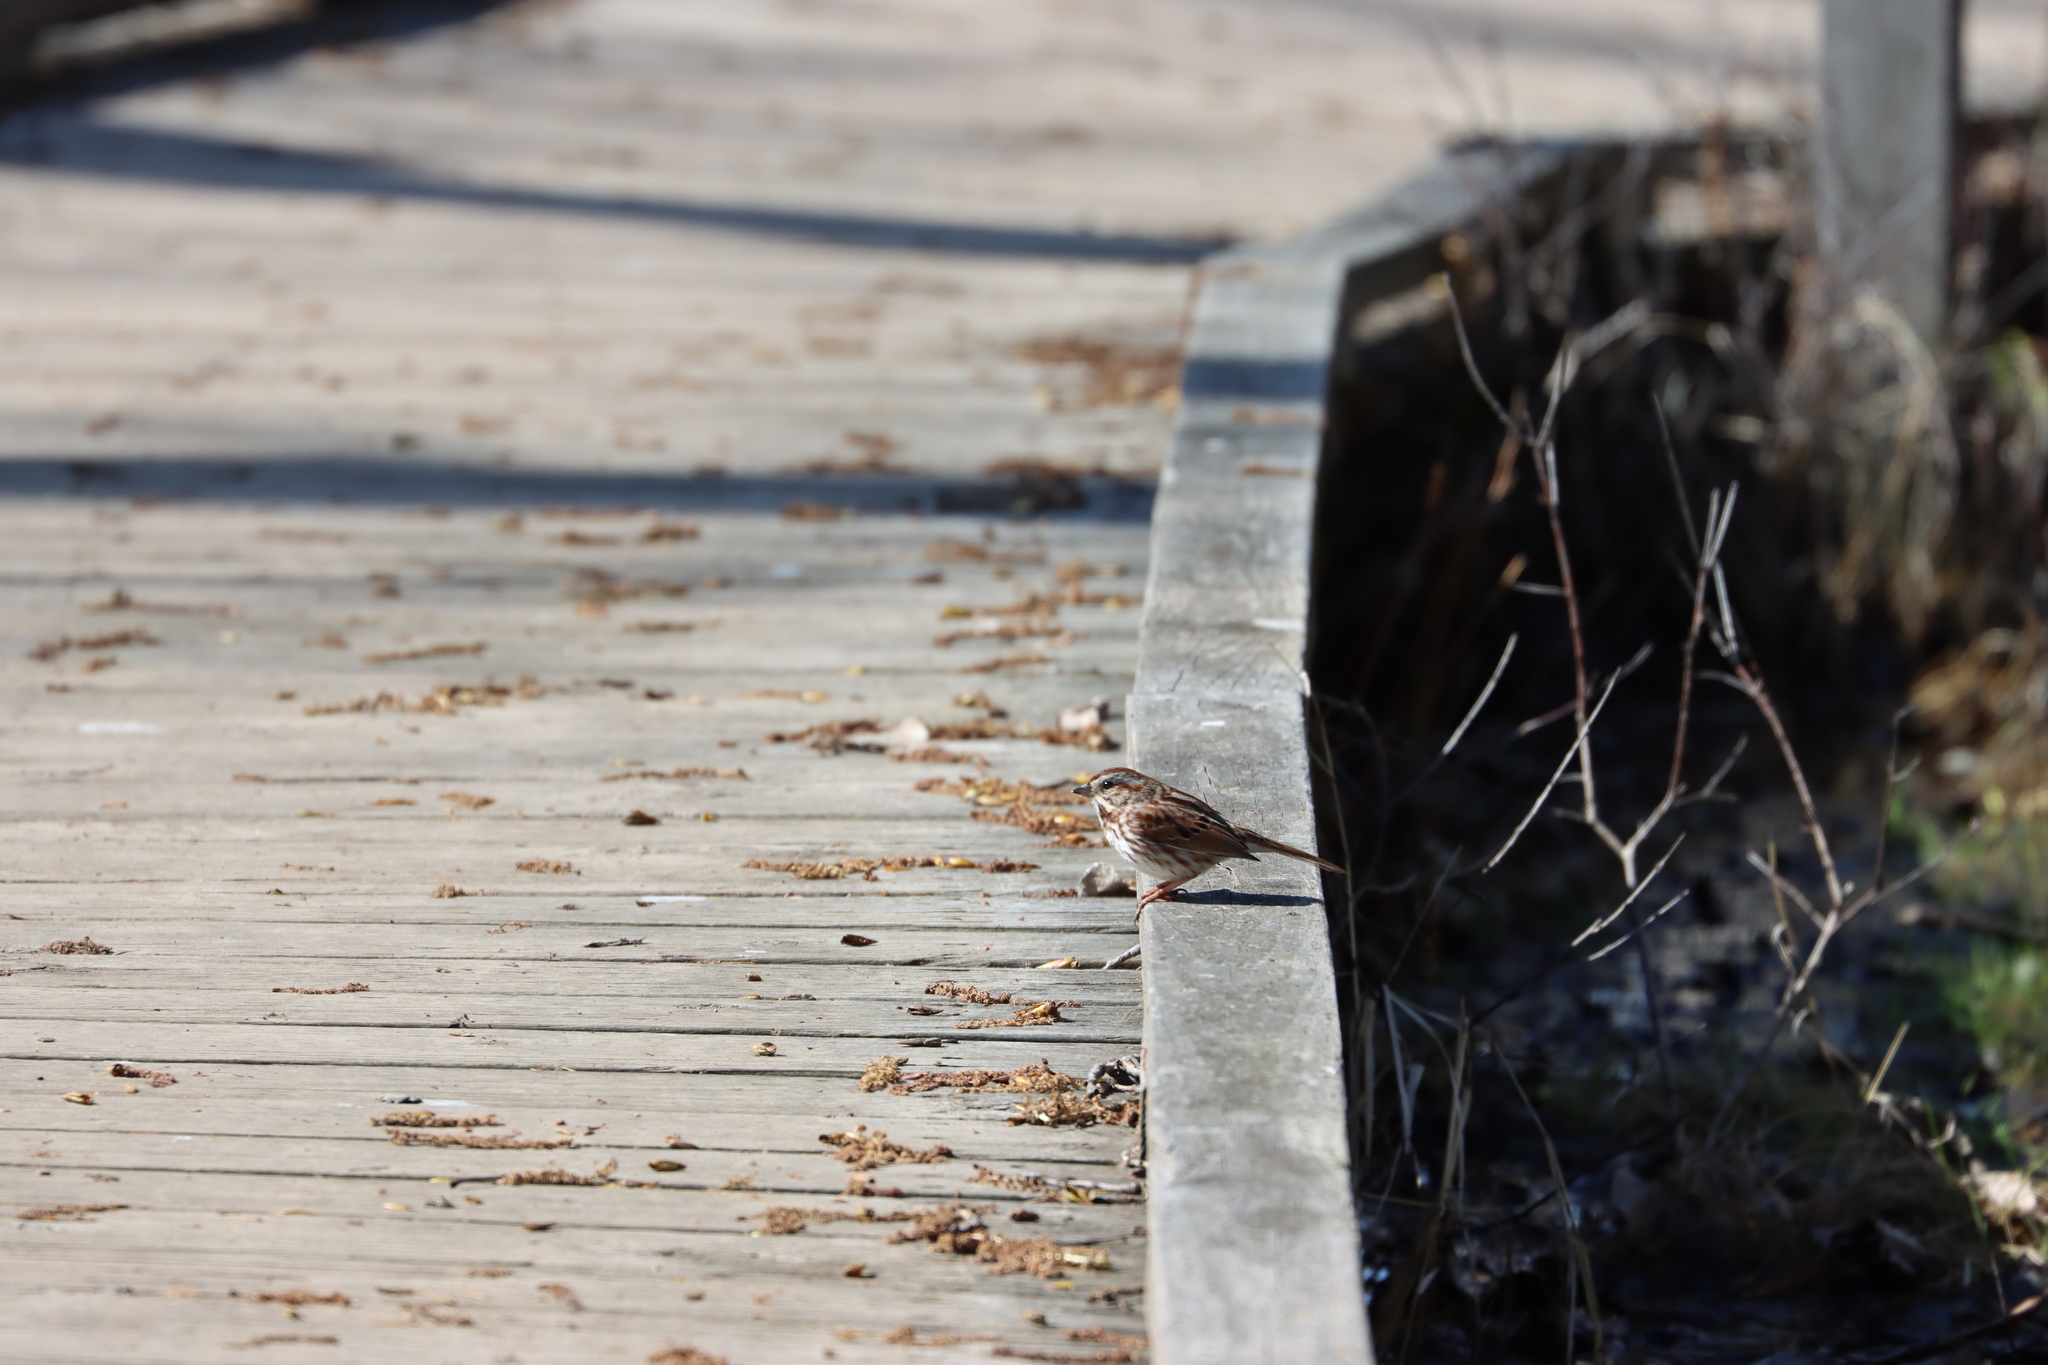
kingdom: Animalia
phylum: Chordata
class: Aves
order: Passeriformes
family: Passerellidae
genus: Melospiza
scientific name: Melospiza melodia
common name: Song sparrow
